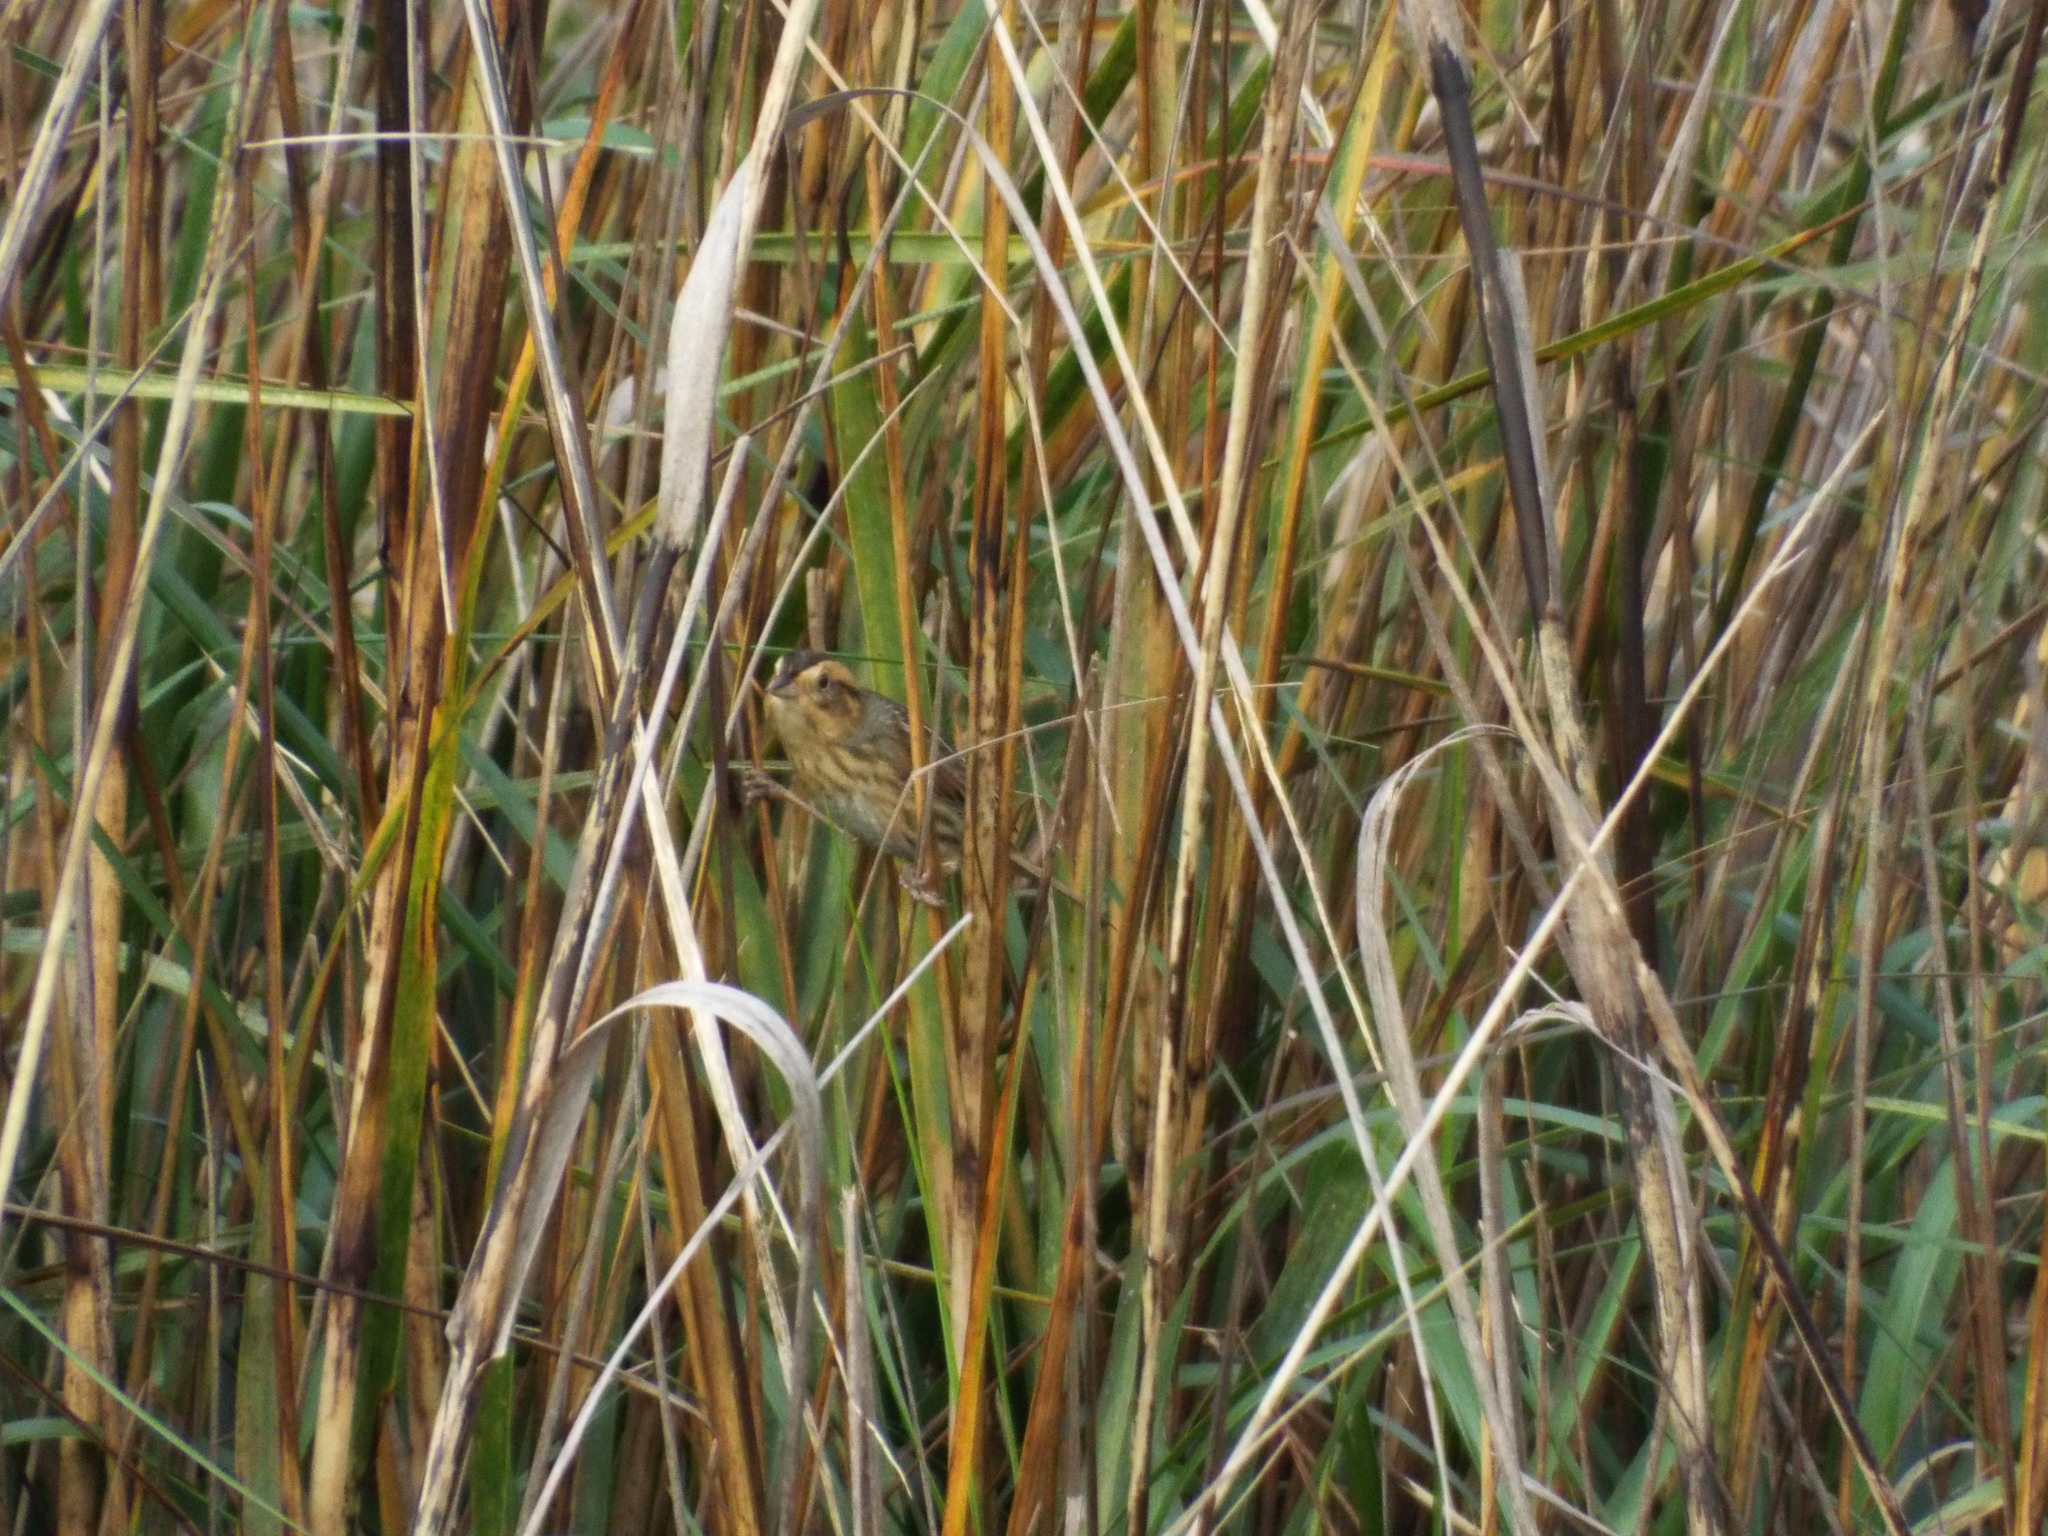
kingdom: Animalia
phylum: Chordata
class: Aves
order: Passeriformes
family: Passerellidae
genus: Ammospiza
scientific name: Ammospiza nelsoni
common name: Nelson's sparrow
